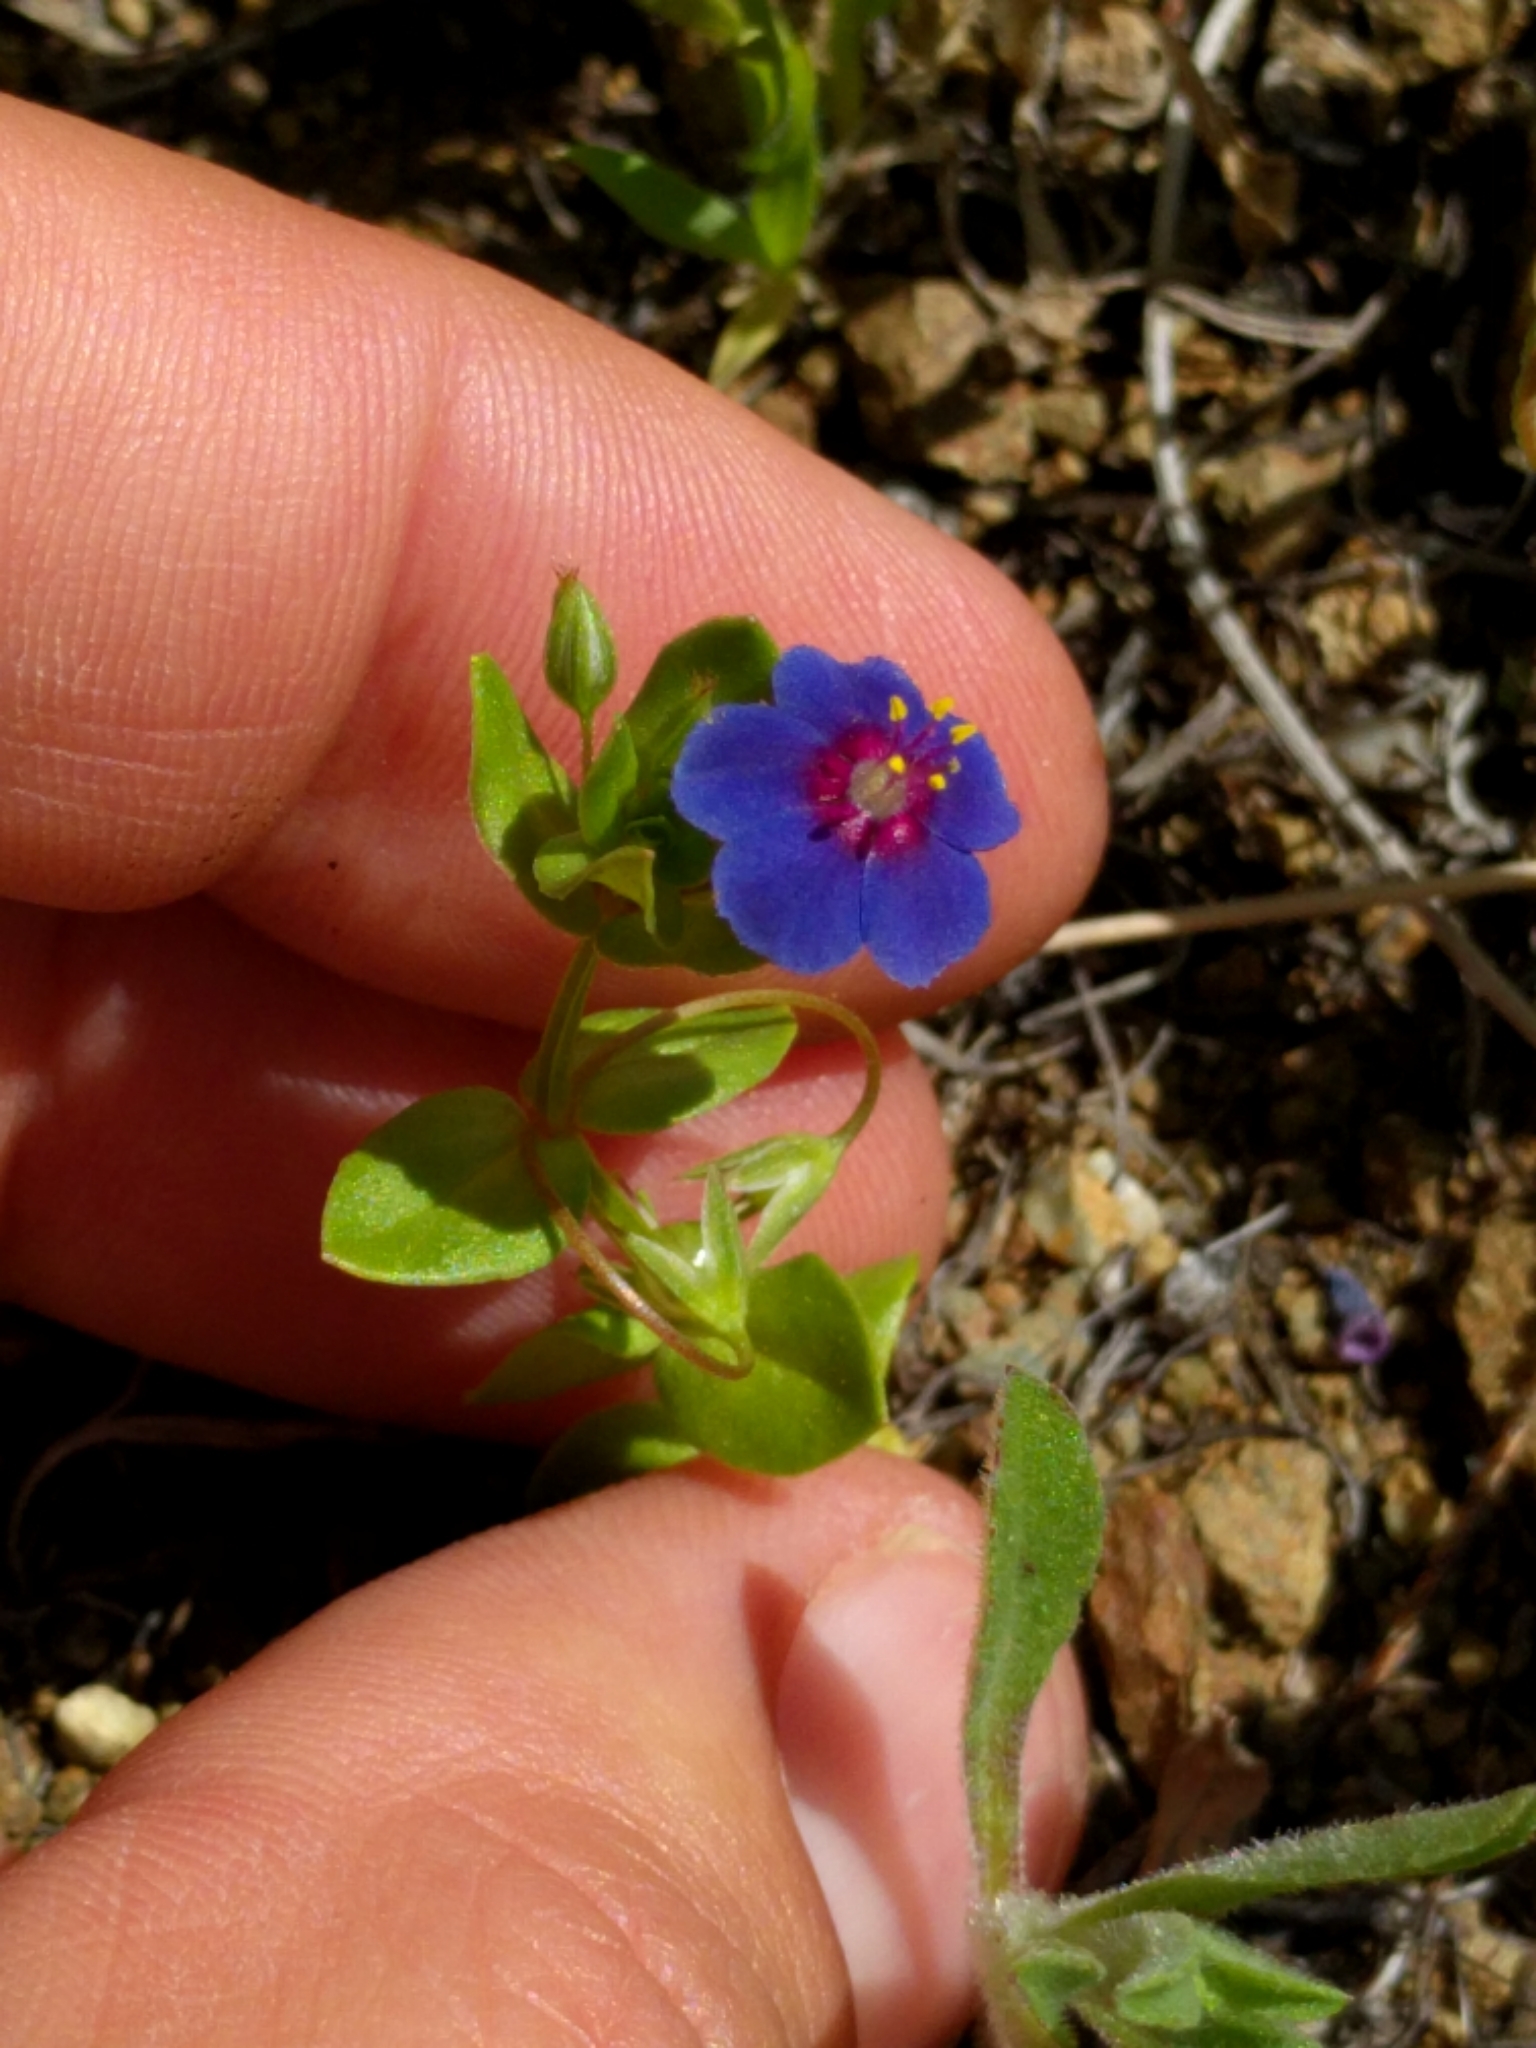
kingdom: Plantae
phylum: Tracheophyta
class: Magnoliopsida
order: Ericales
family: Primulaceae
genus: Lysimachia
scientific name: Lysimachia arvensis
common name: Scarlet pimpernel
